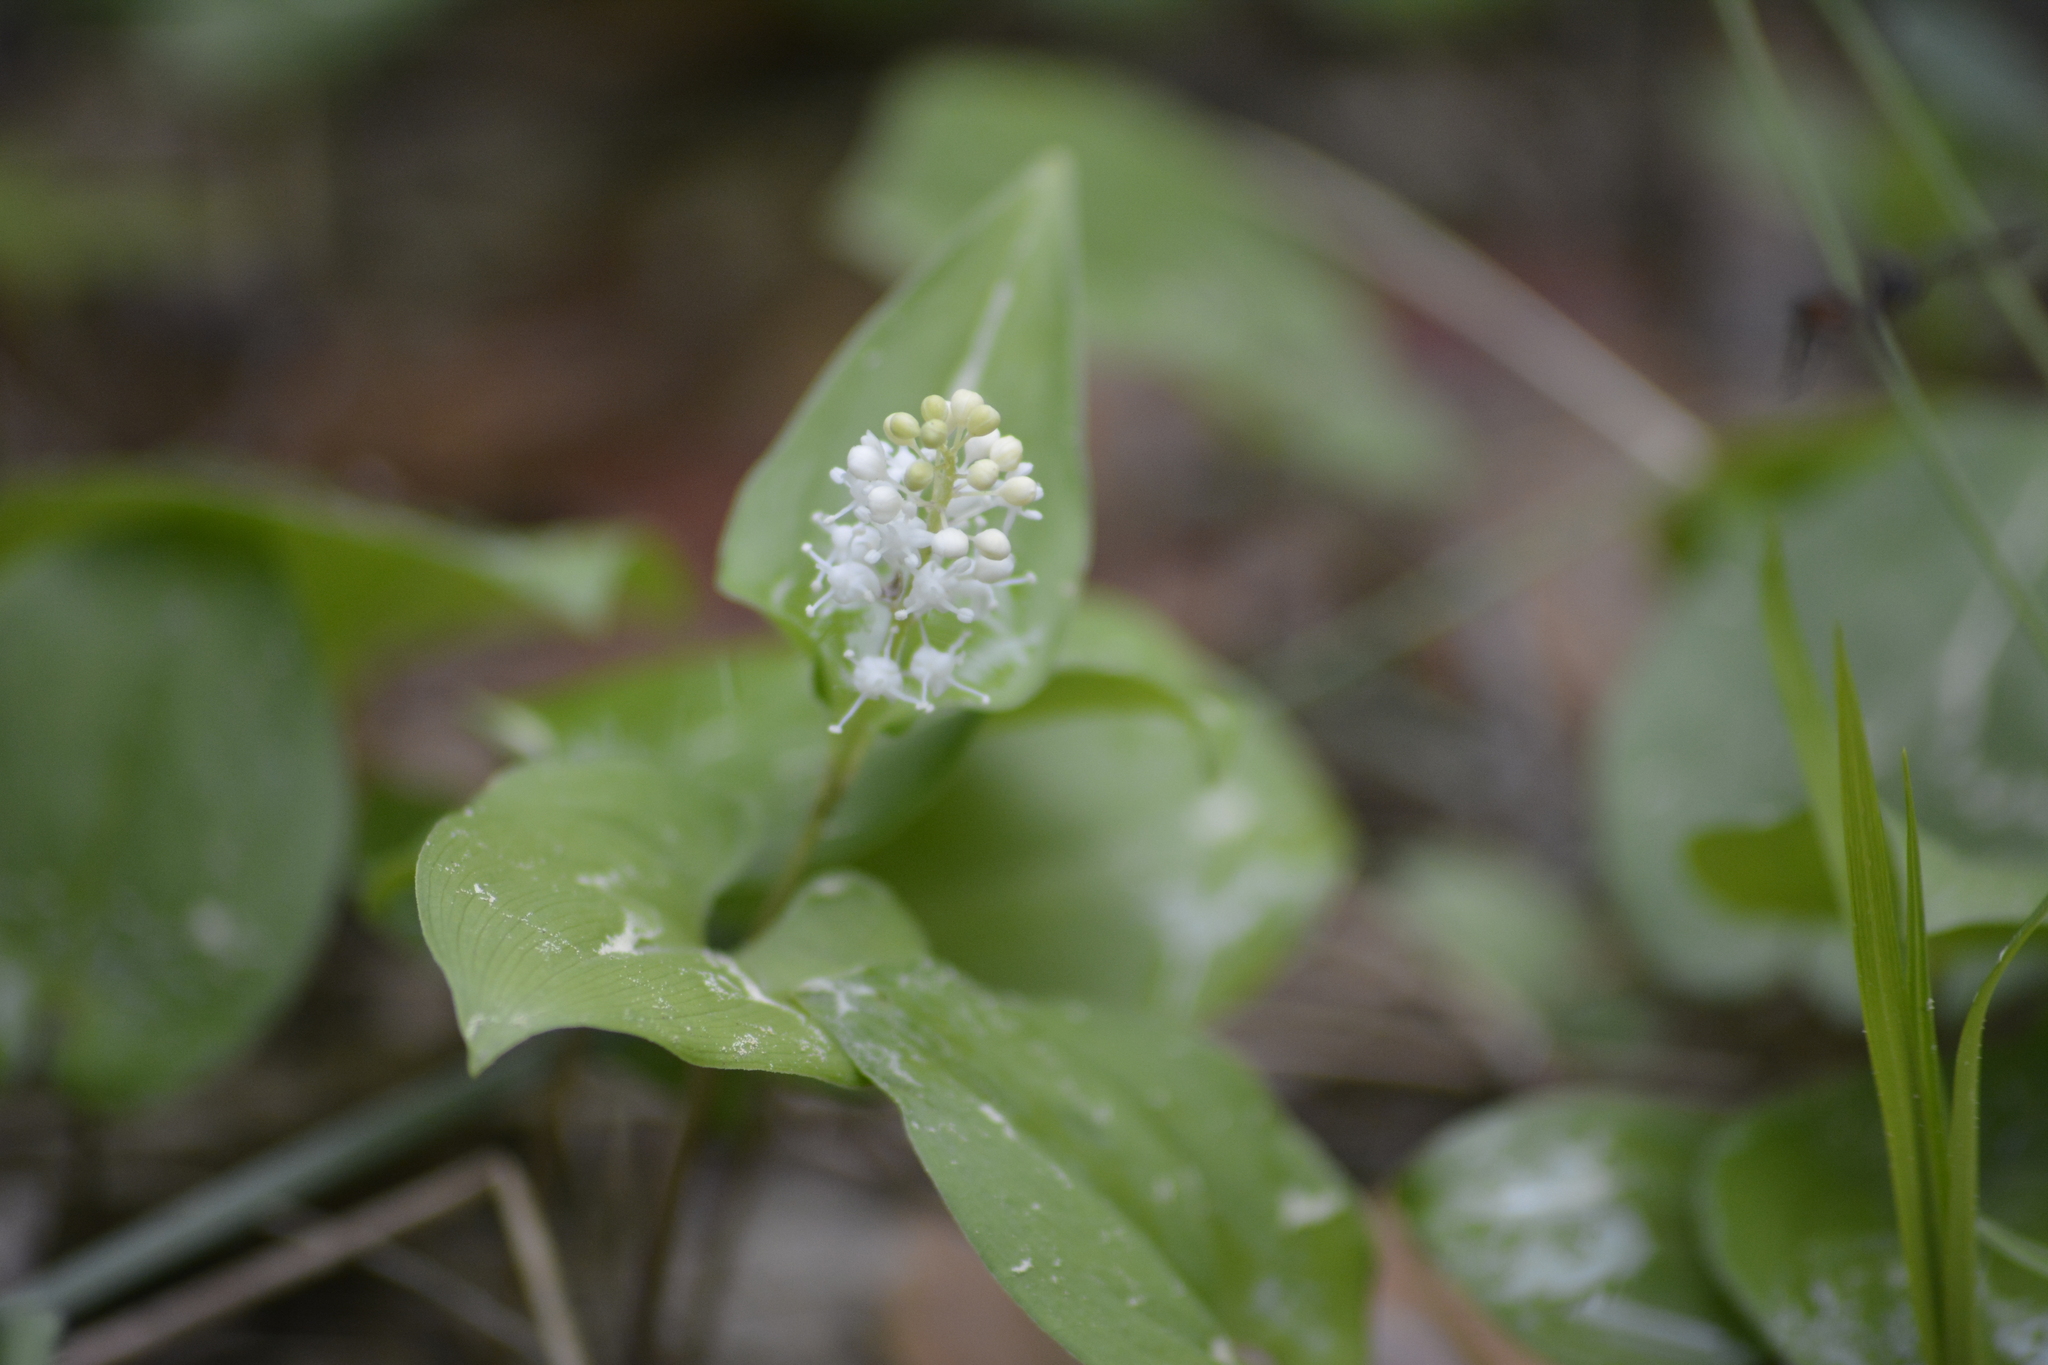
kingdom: Plantae
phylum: Tracheophyta
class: Liliopsida
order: Asparagales
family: Asparagaceae
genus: Maianthemum
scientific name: Maianthemum bifolium
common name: May lily
